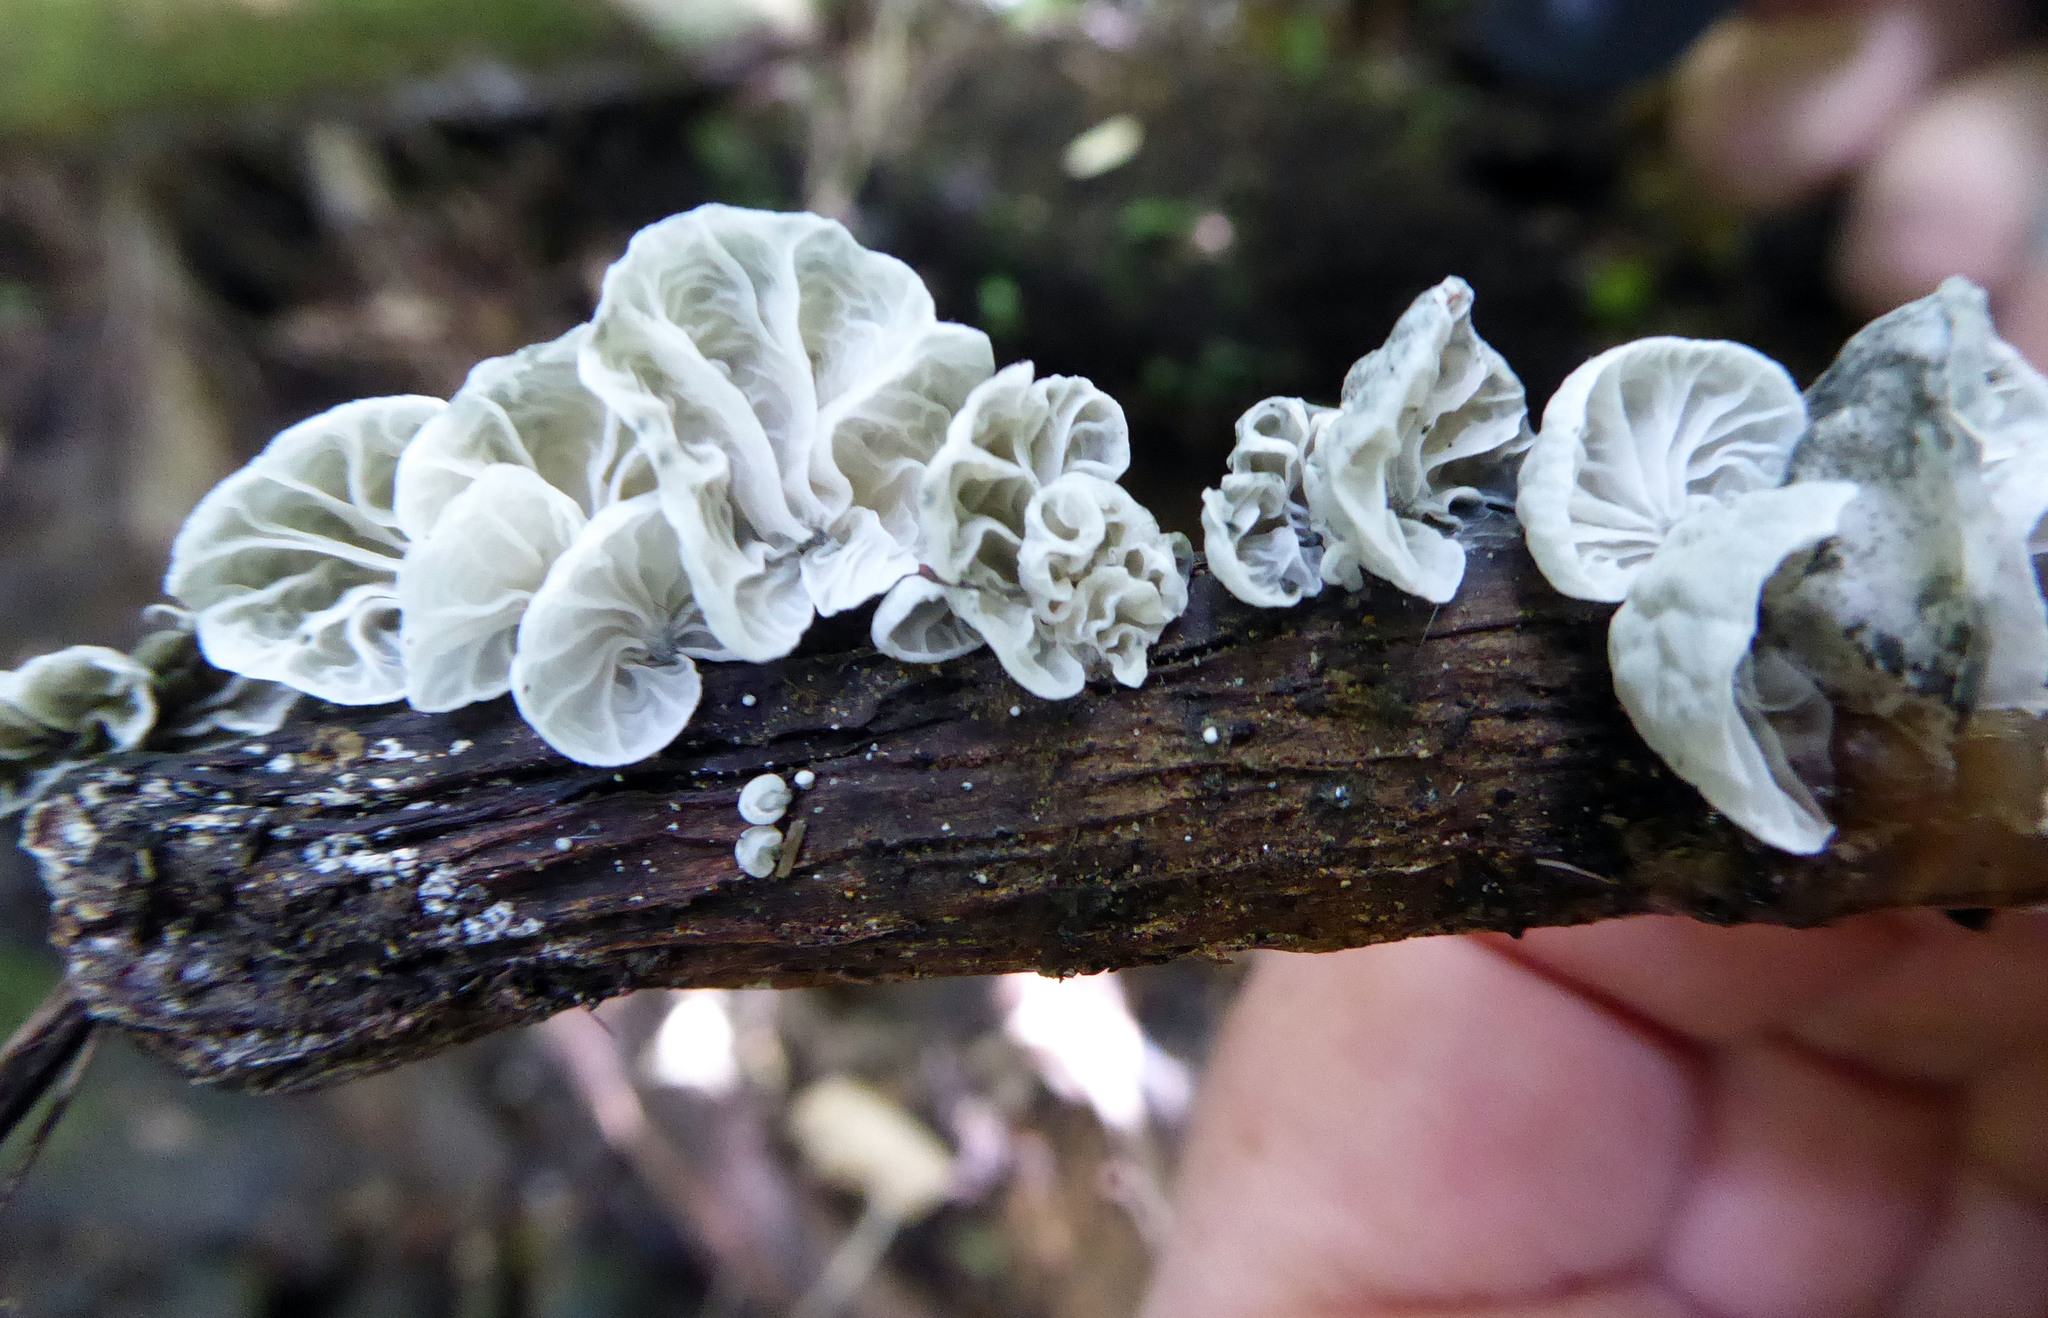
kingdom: Fungi
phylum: Basidiomycota
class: Agaricomycetes
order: Agaricales
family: Marasmiaceae
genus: Campanella
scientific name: Campanella tristis
